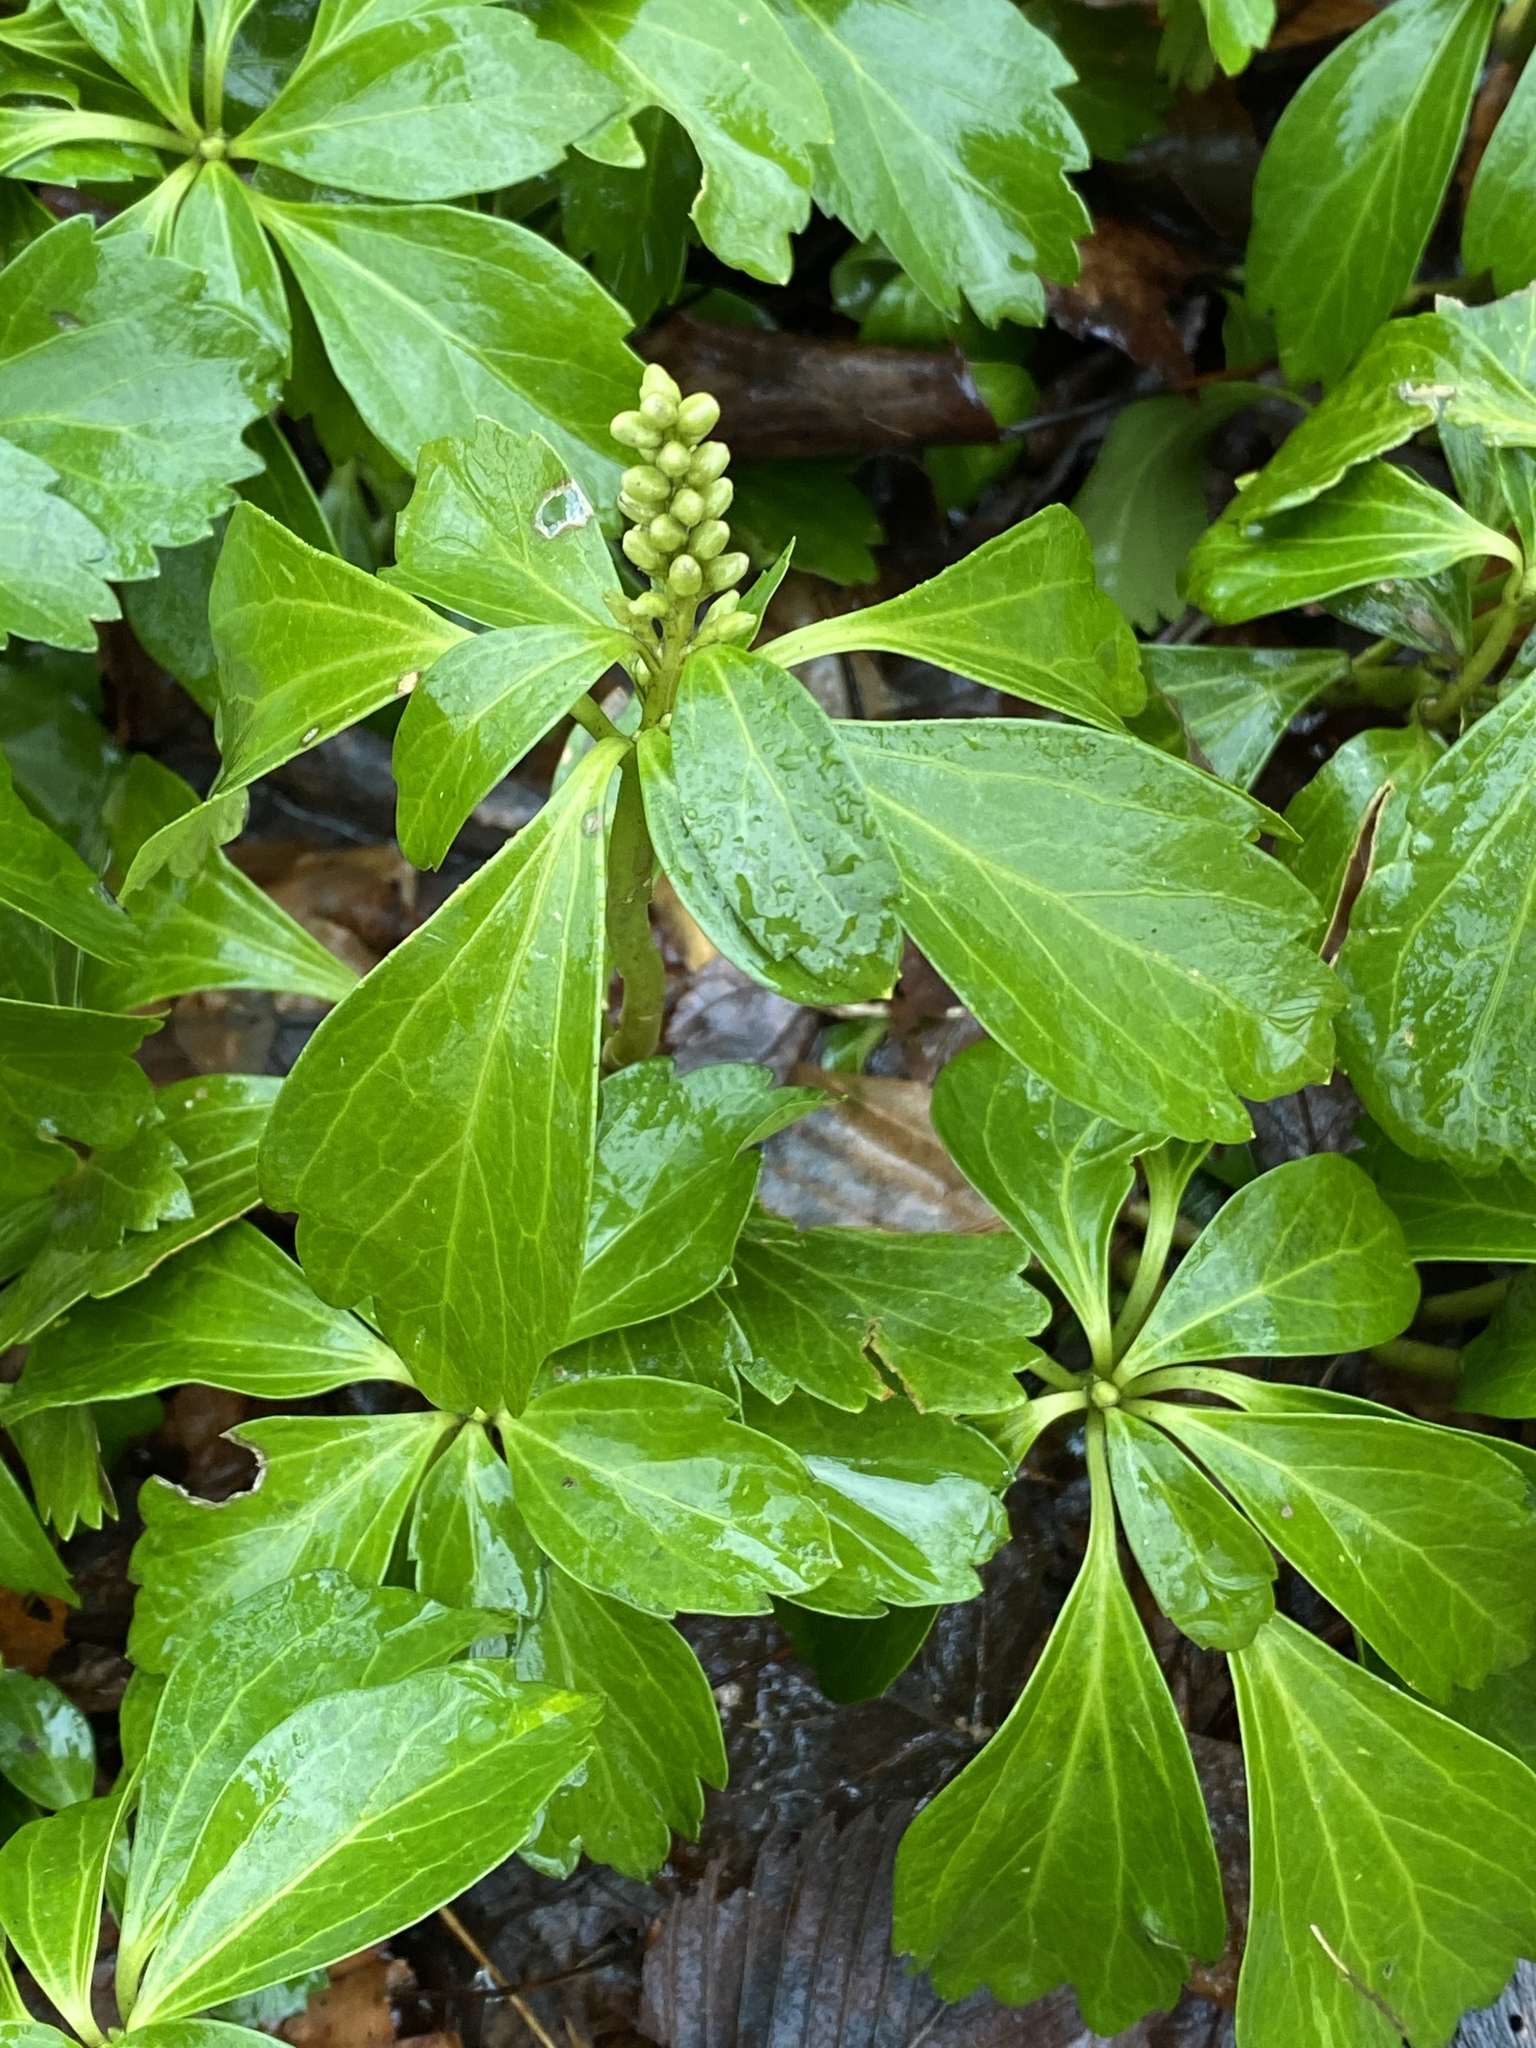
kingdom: Plantae
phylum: Tracheophyta
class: Magnoliopsida
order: Buxales
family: Buxaceae
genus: Pachysandra
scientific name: Pachysandra terminalis
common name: Japanese pachysandra
